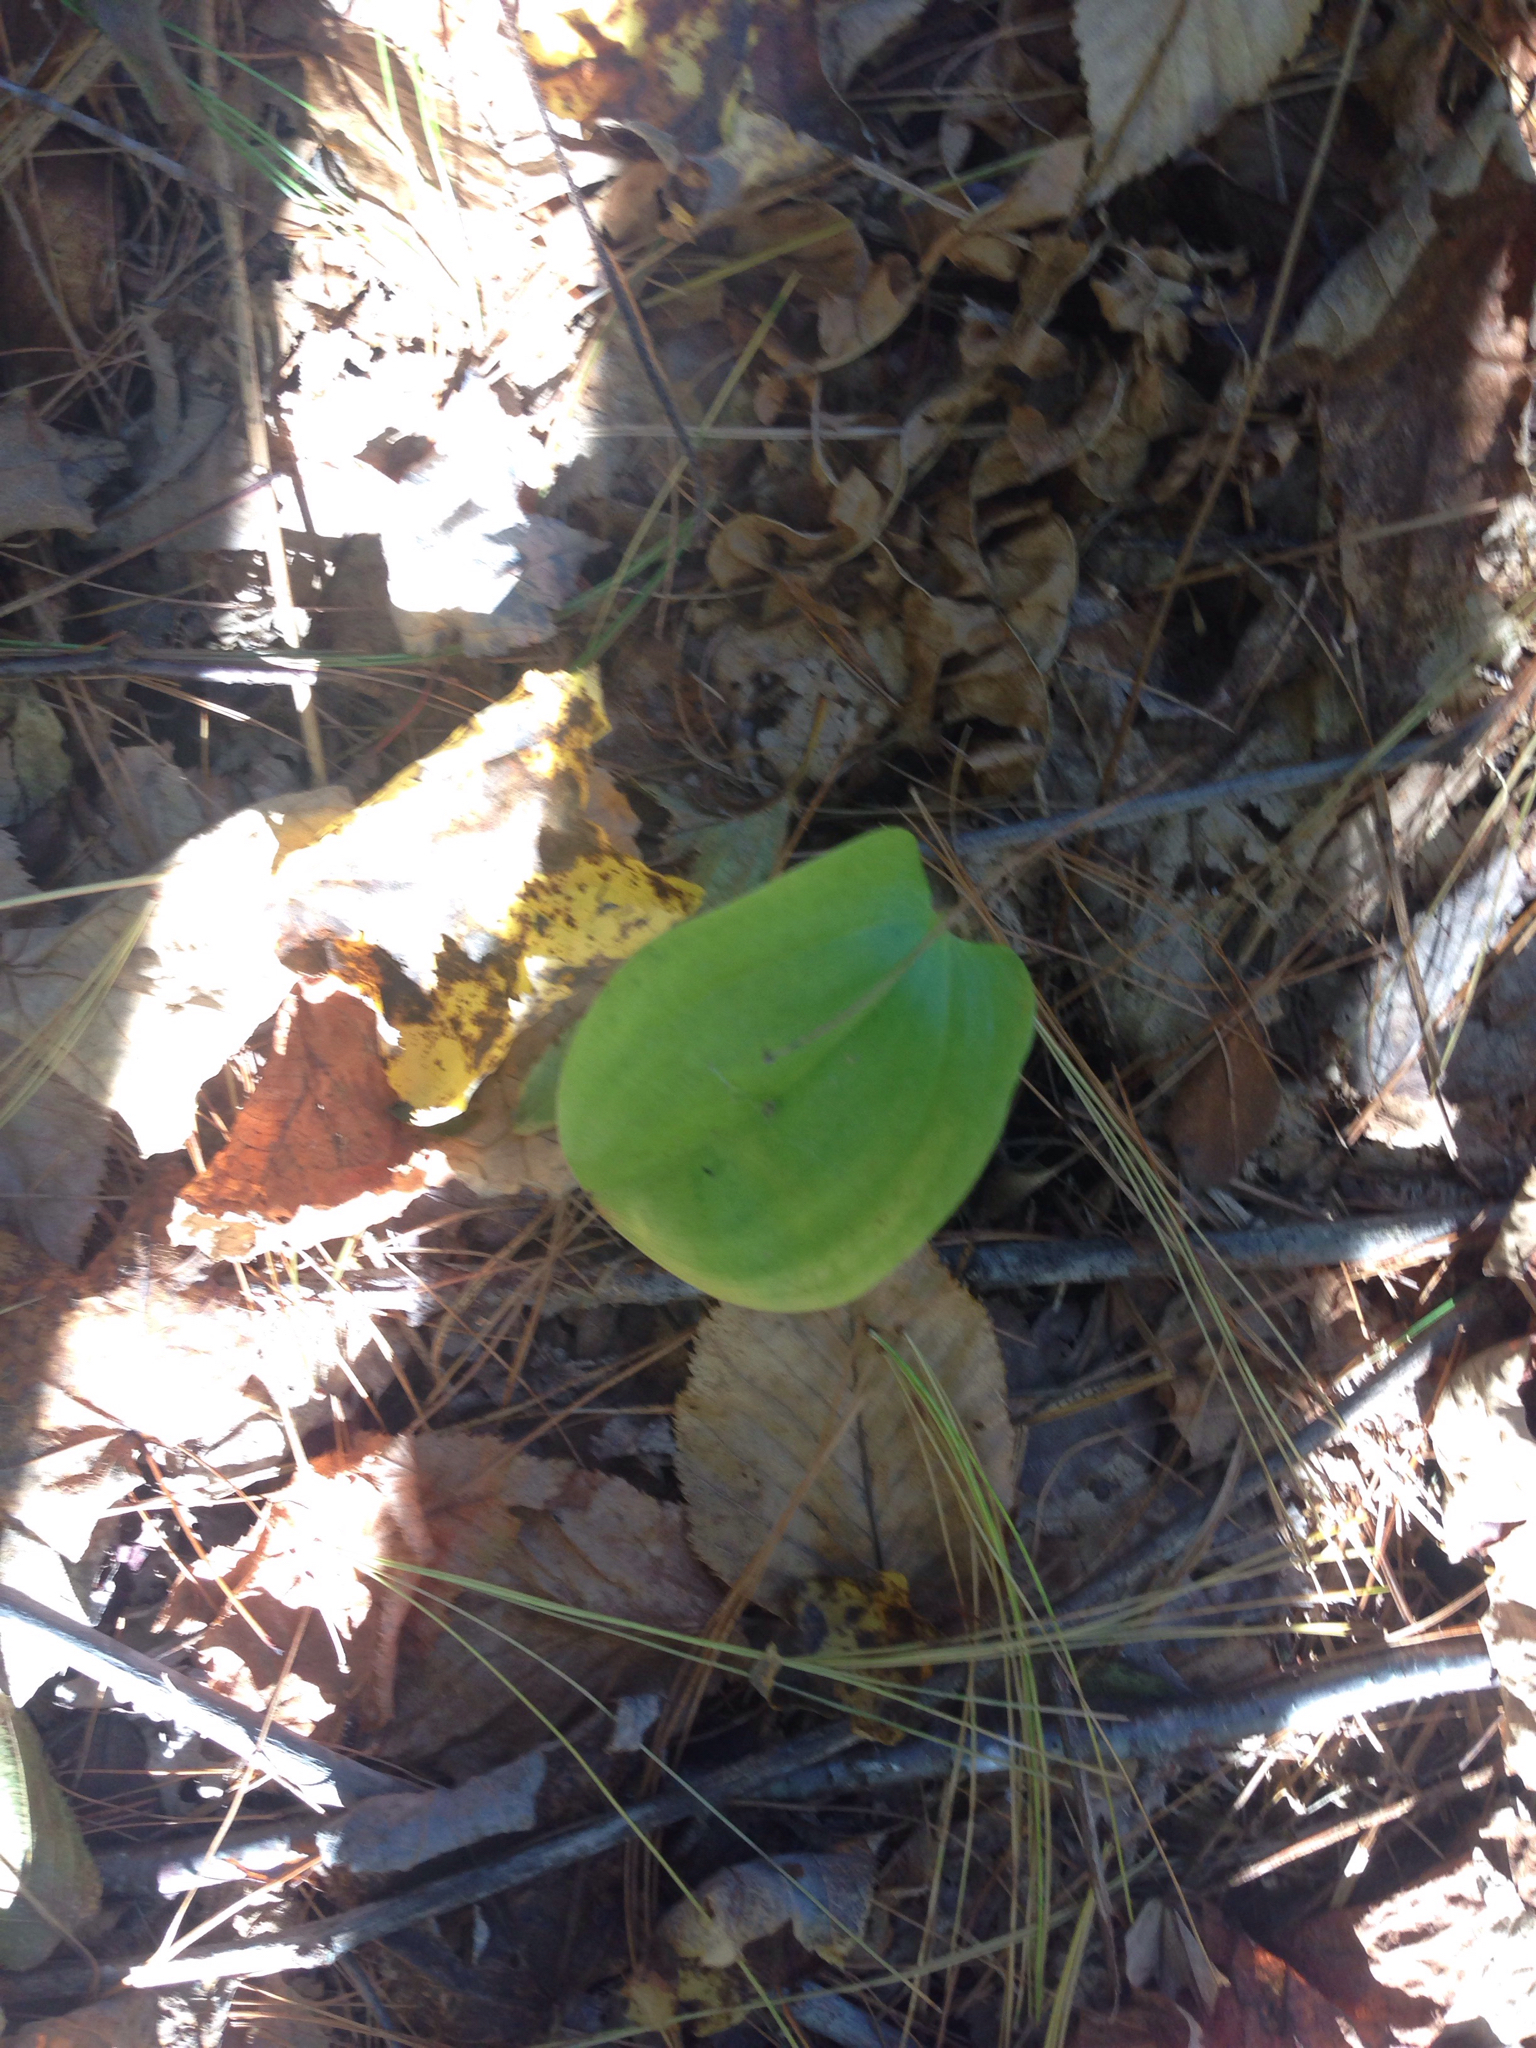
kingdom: Plantae
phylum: Tracheophyta
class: Liliopsida
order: Asparagales
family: Asparagaceae
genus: Maianthemum
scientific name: Maianthemum canadense
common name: False lily-of-the-valley
